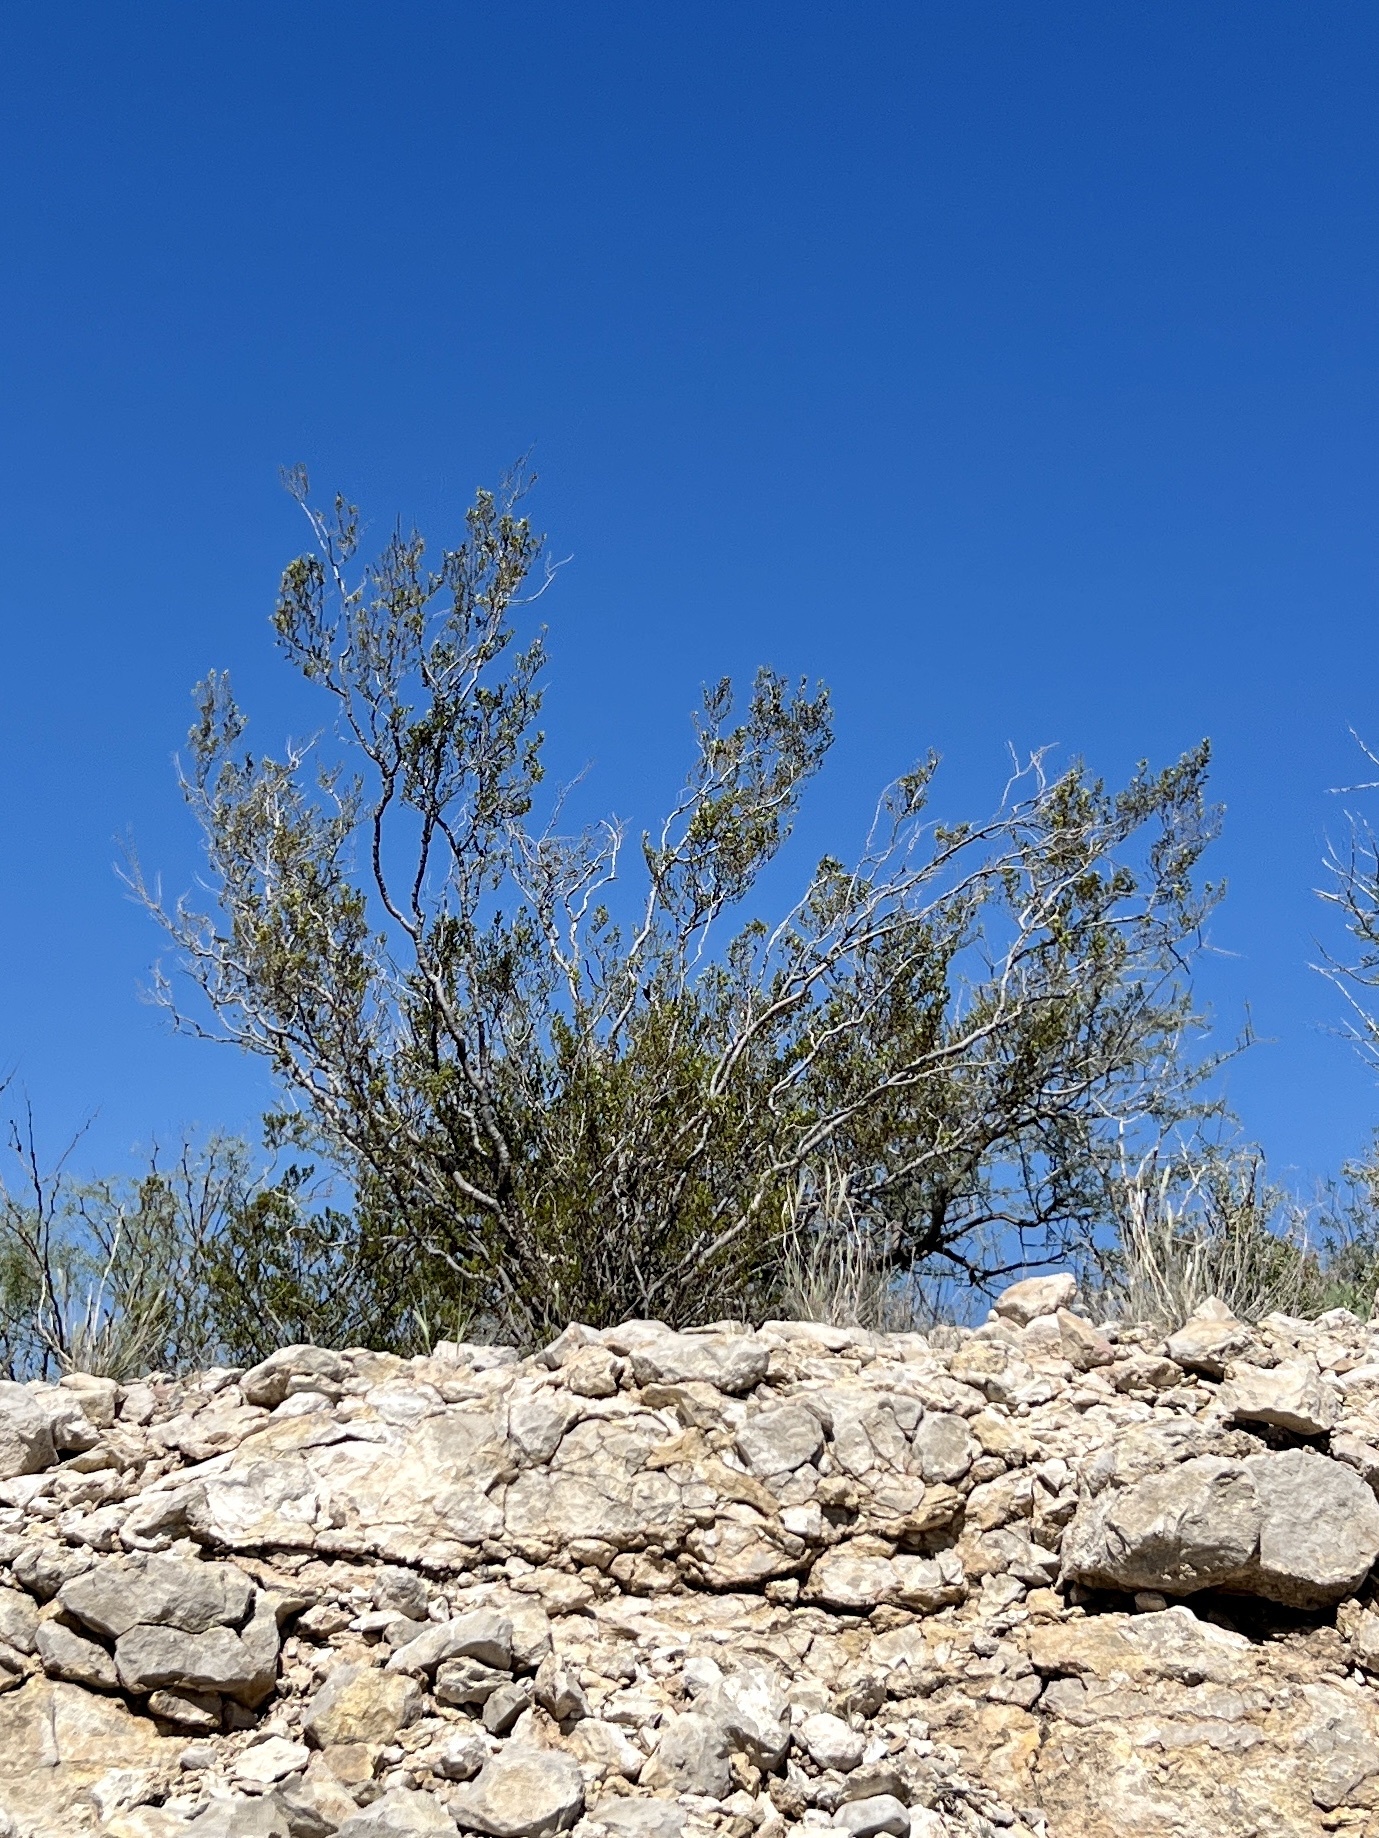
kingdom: Plantae
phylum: Tracheophyta
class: Magnoliopsida
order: Zygophyllales
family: Zygophyllaceae
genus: Larrea
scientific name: Larrea tridentata
